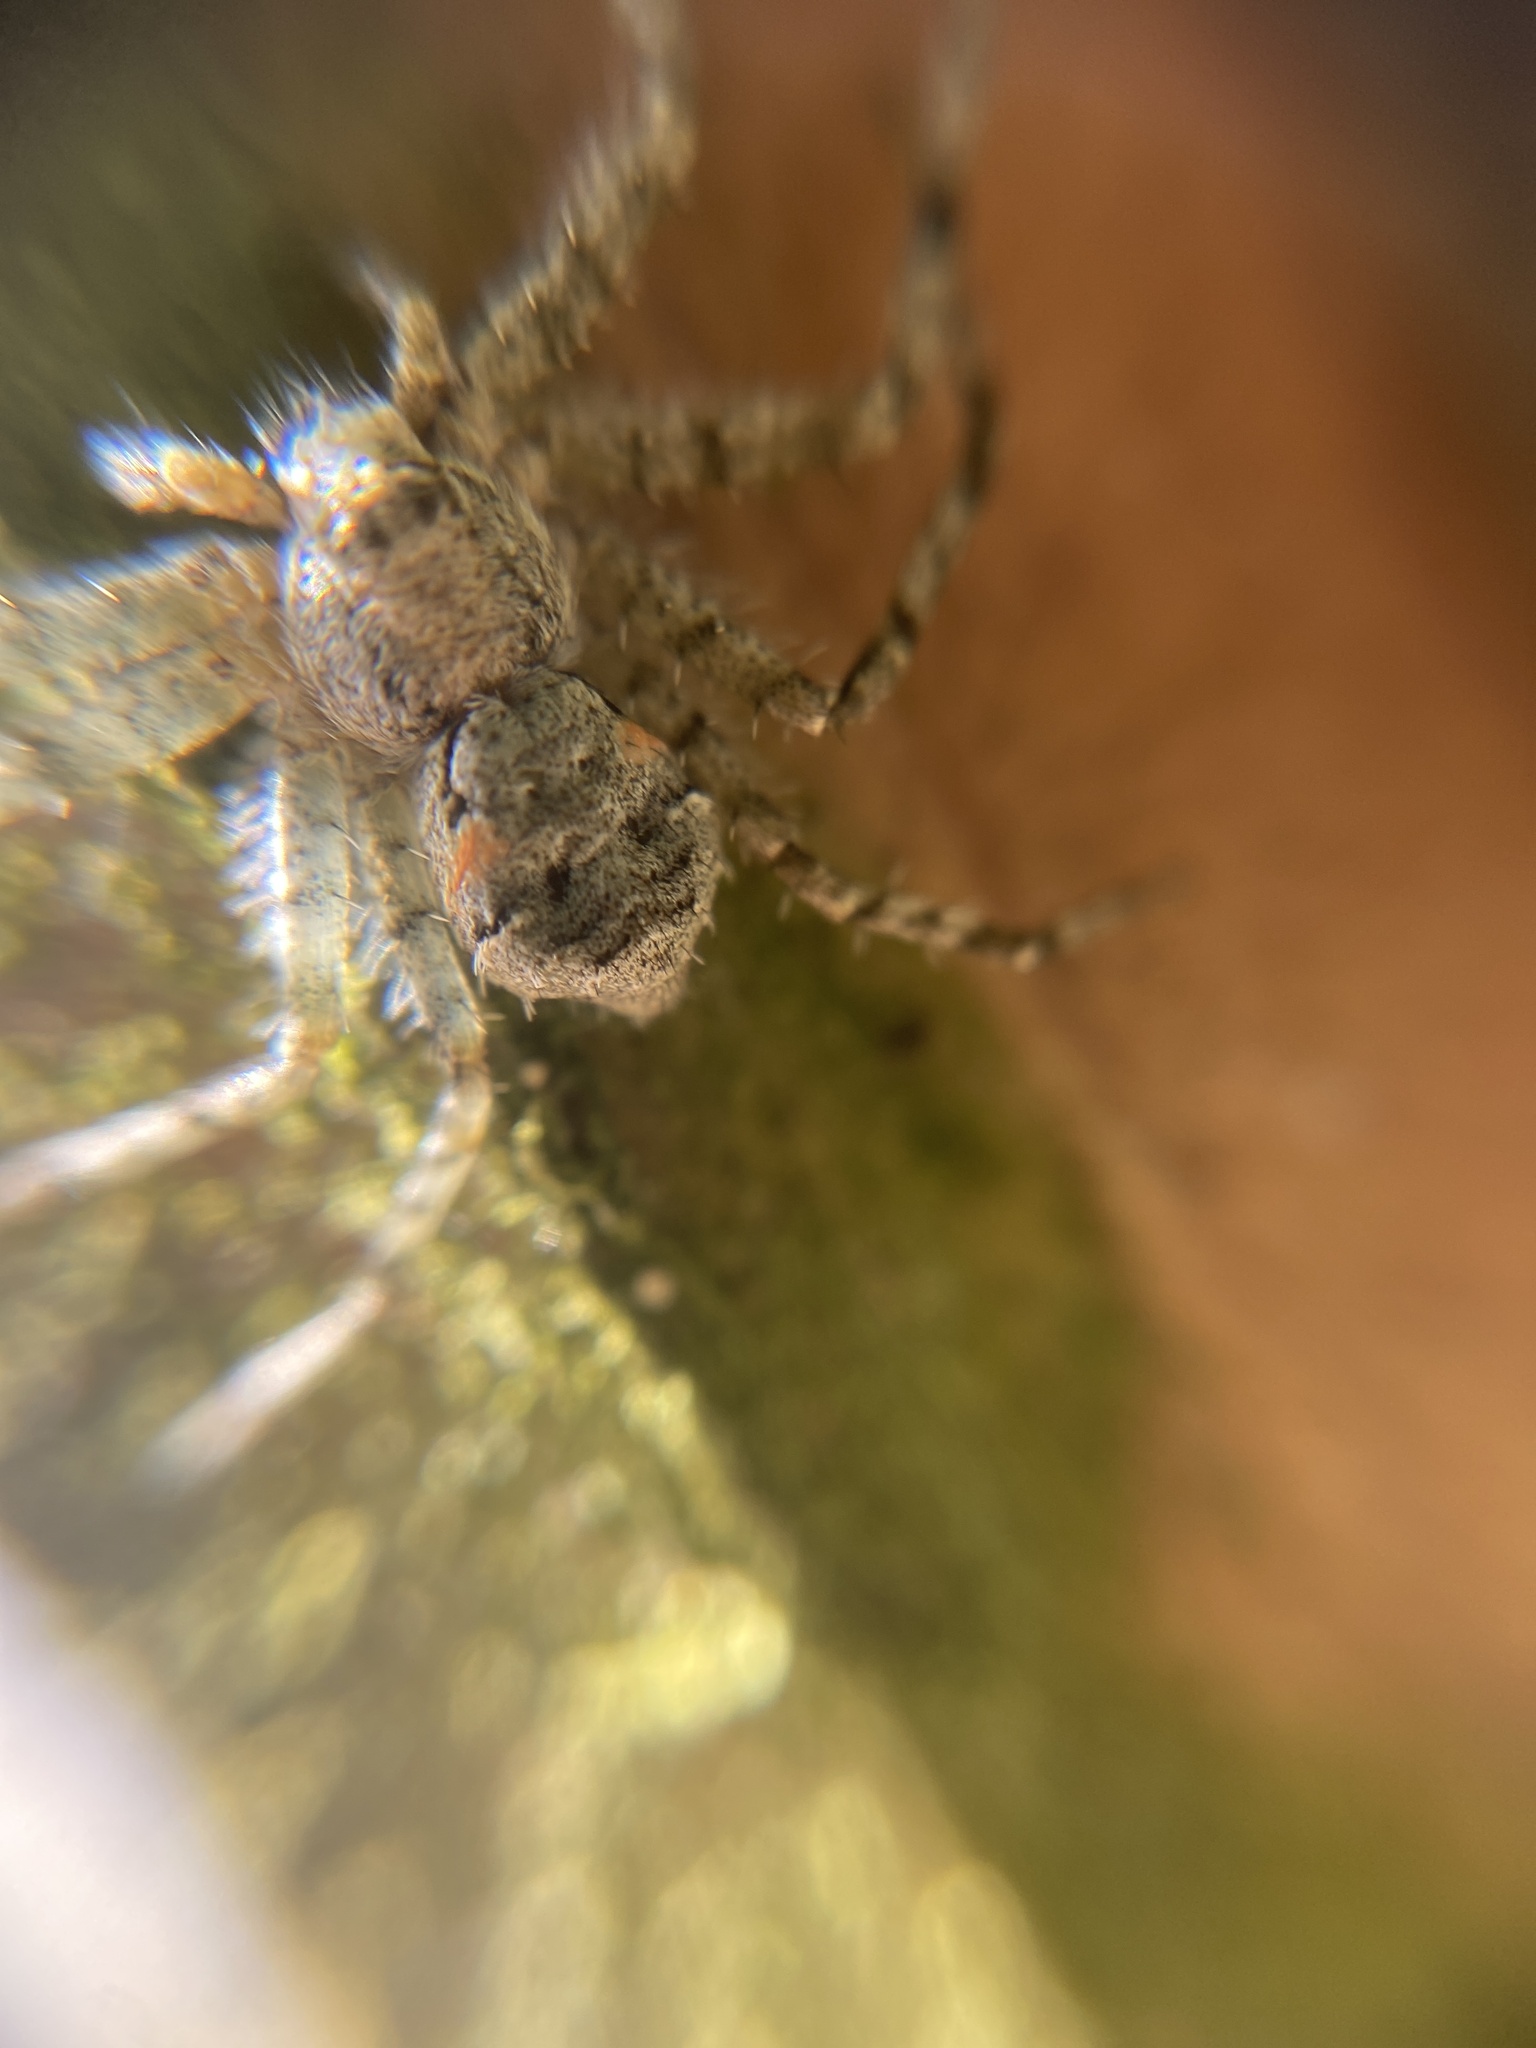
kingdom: Animalia
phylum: Arthropoda
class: Arachnida
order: Araneae
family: Philodromidae
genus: Philodromus
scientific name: Philodromus margaritatus
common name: Lichen running-spider
